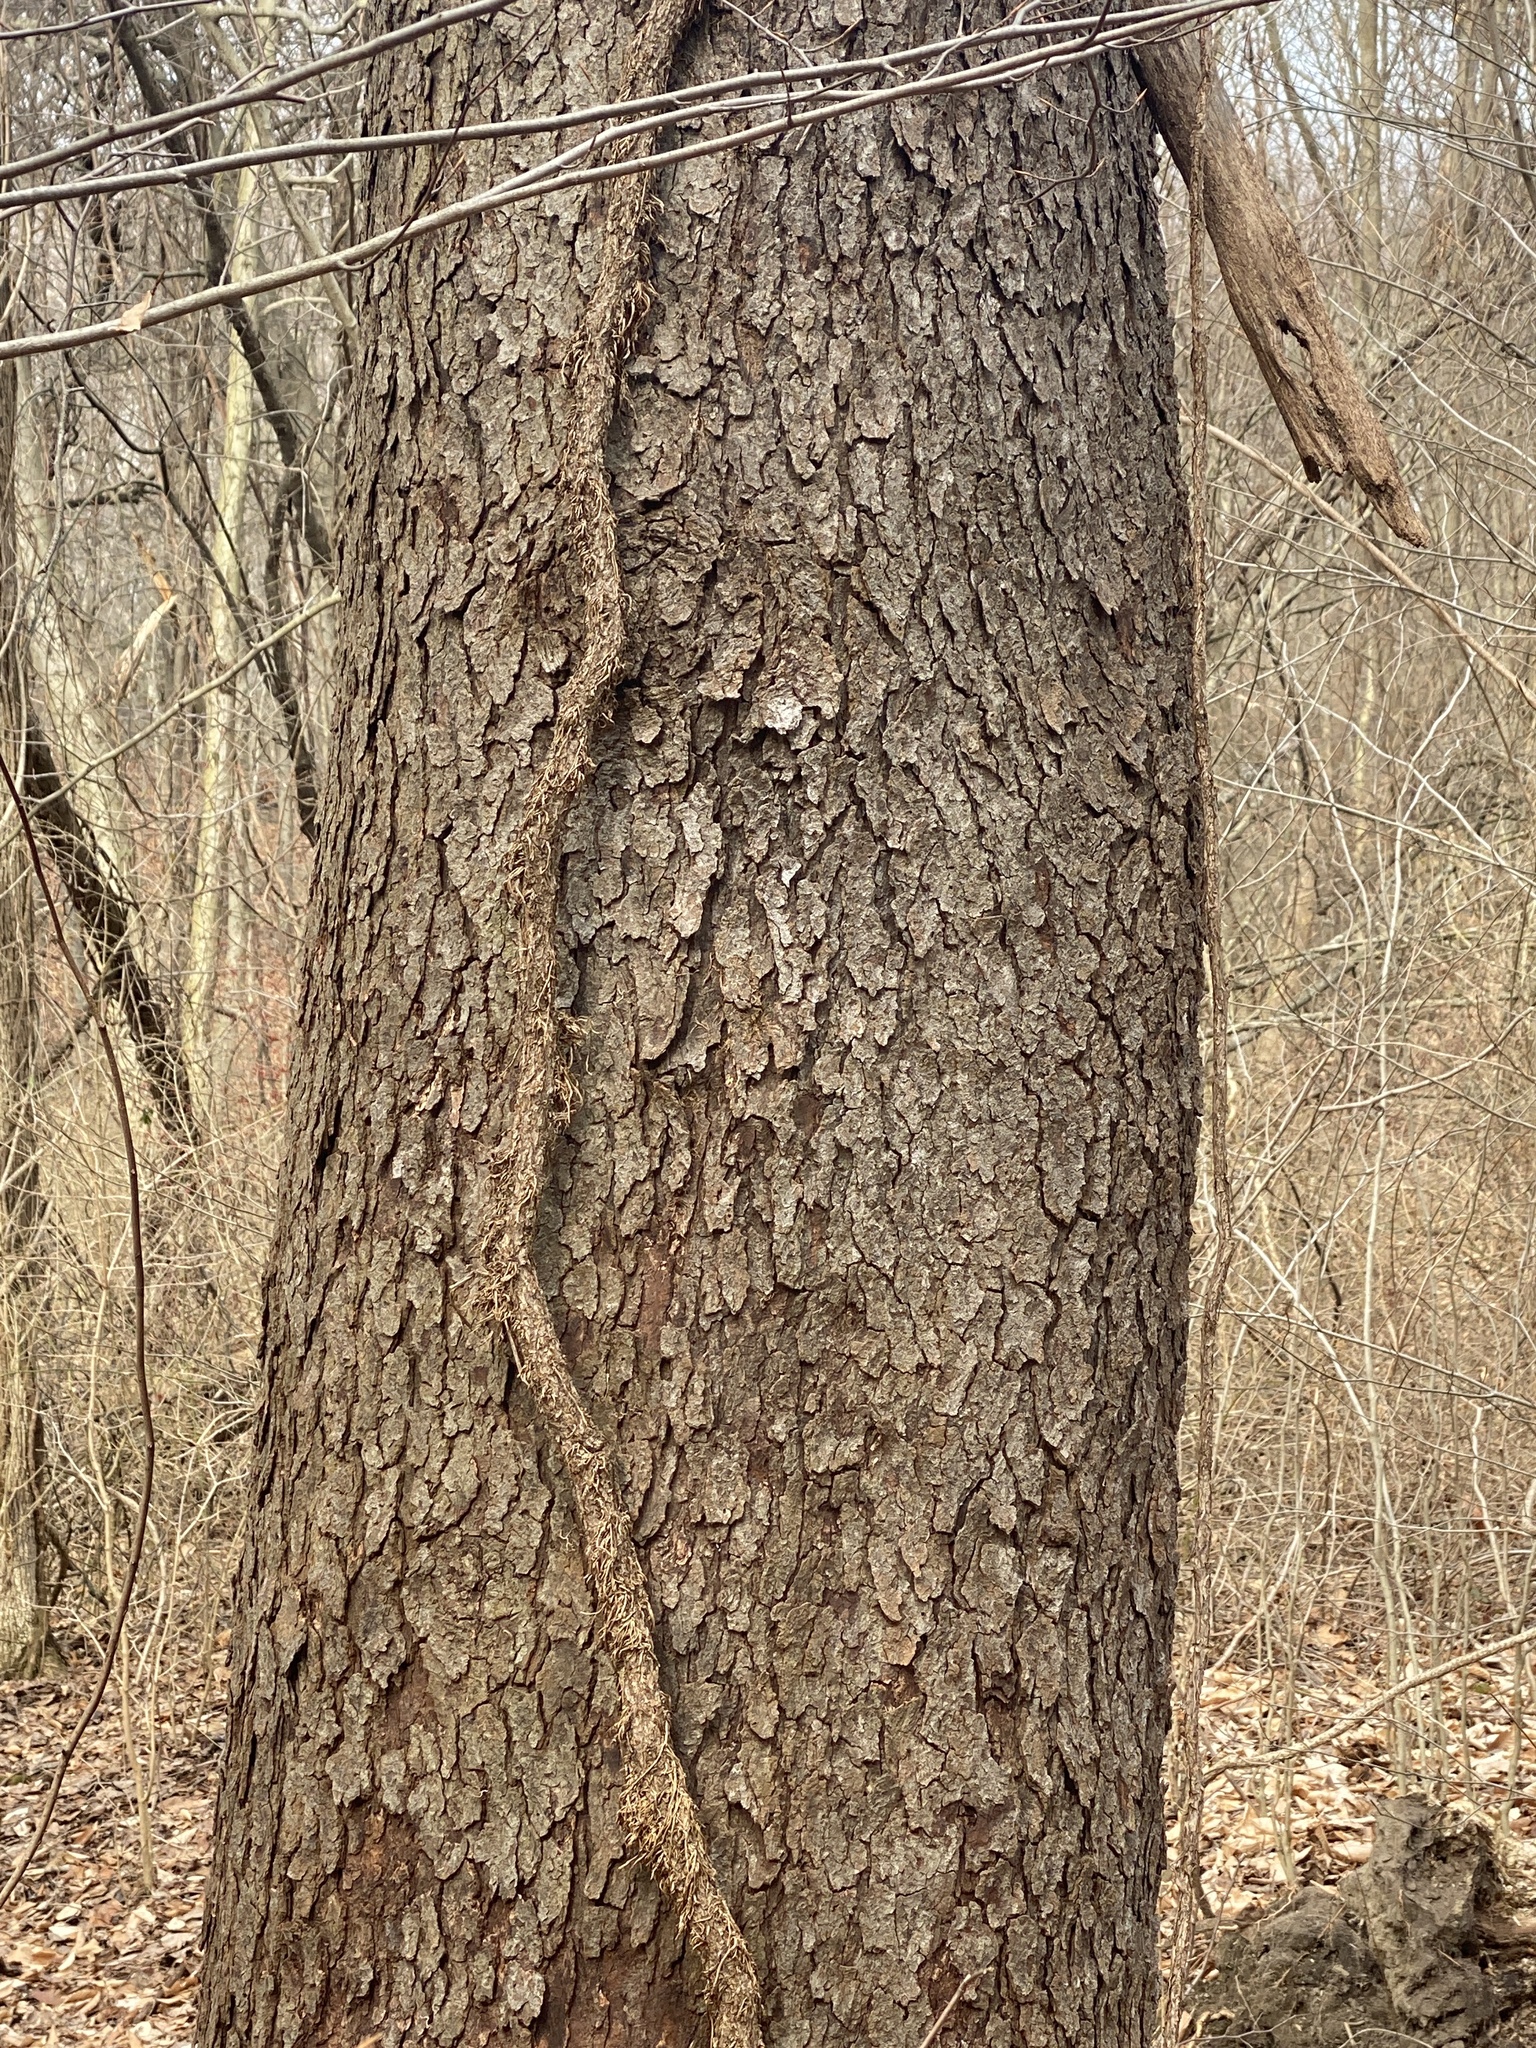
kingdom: Plantae
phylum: Tracheophyta
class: Magnoliopsida
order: Rosales
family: Rosaceae
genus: Prunus
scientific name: Prunus serotina
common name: Black cherry
